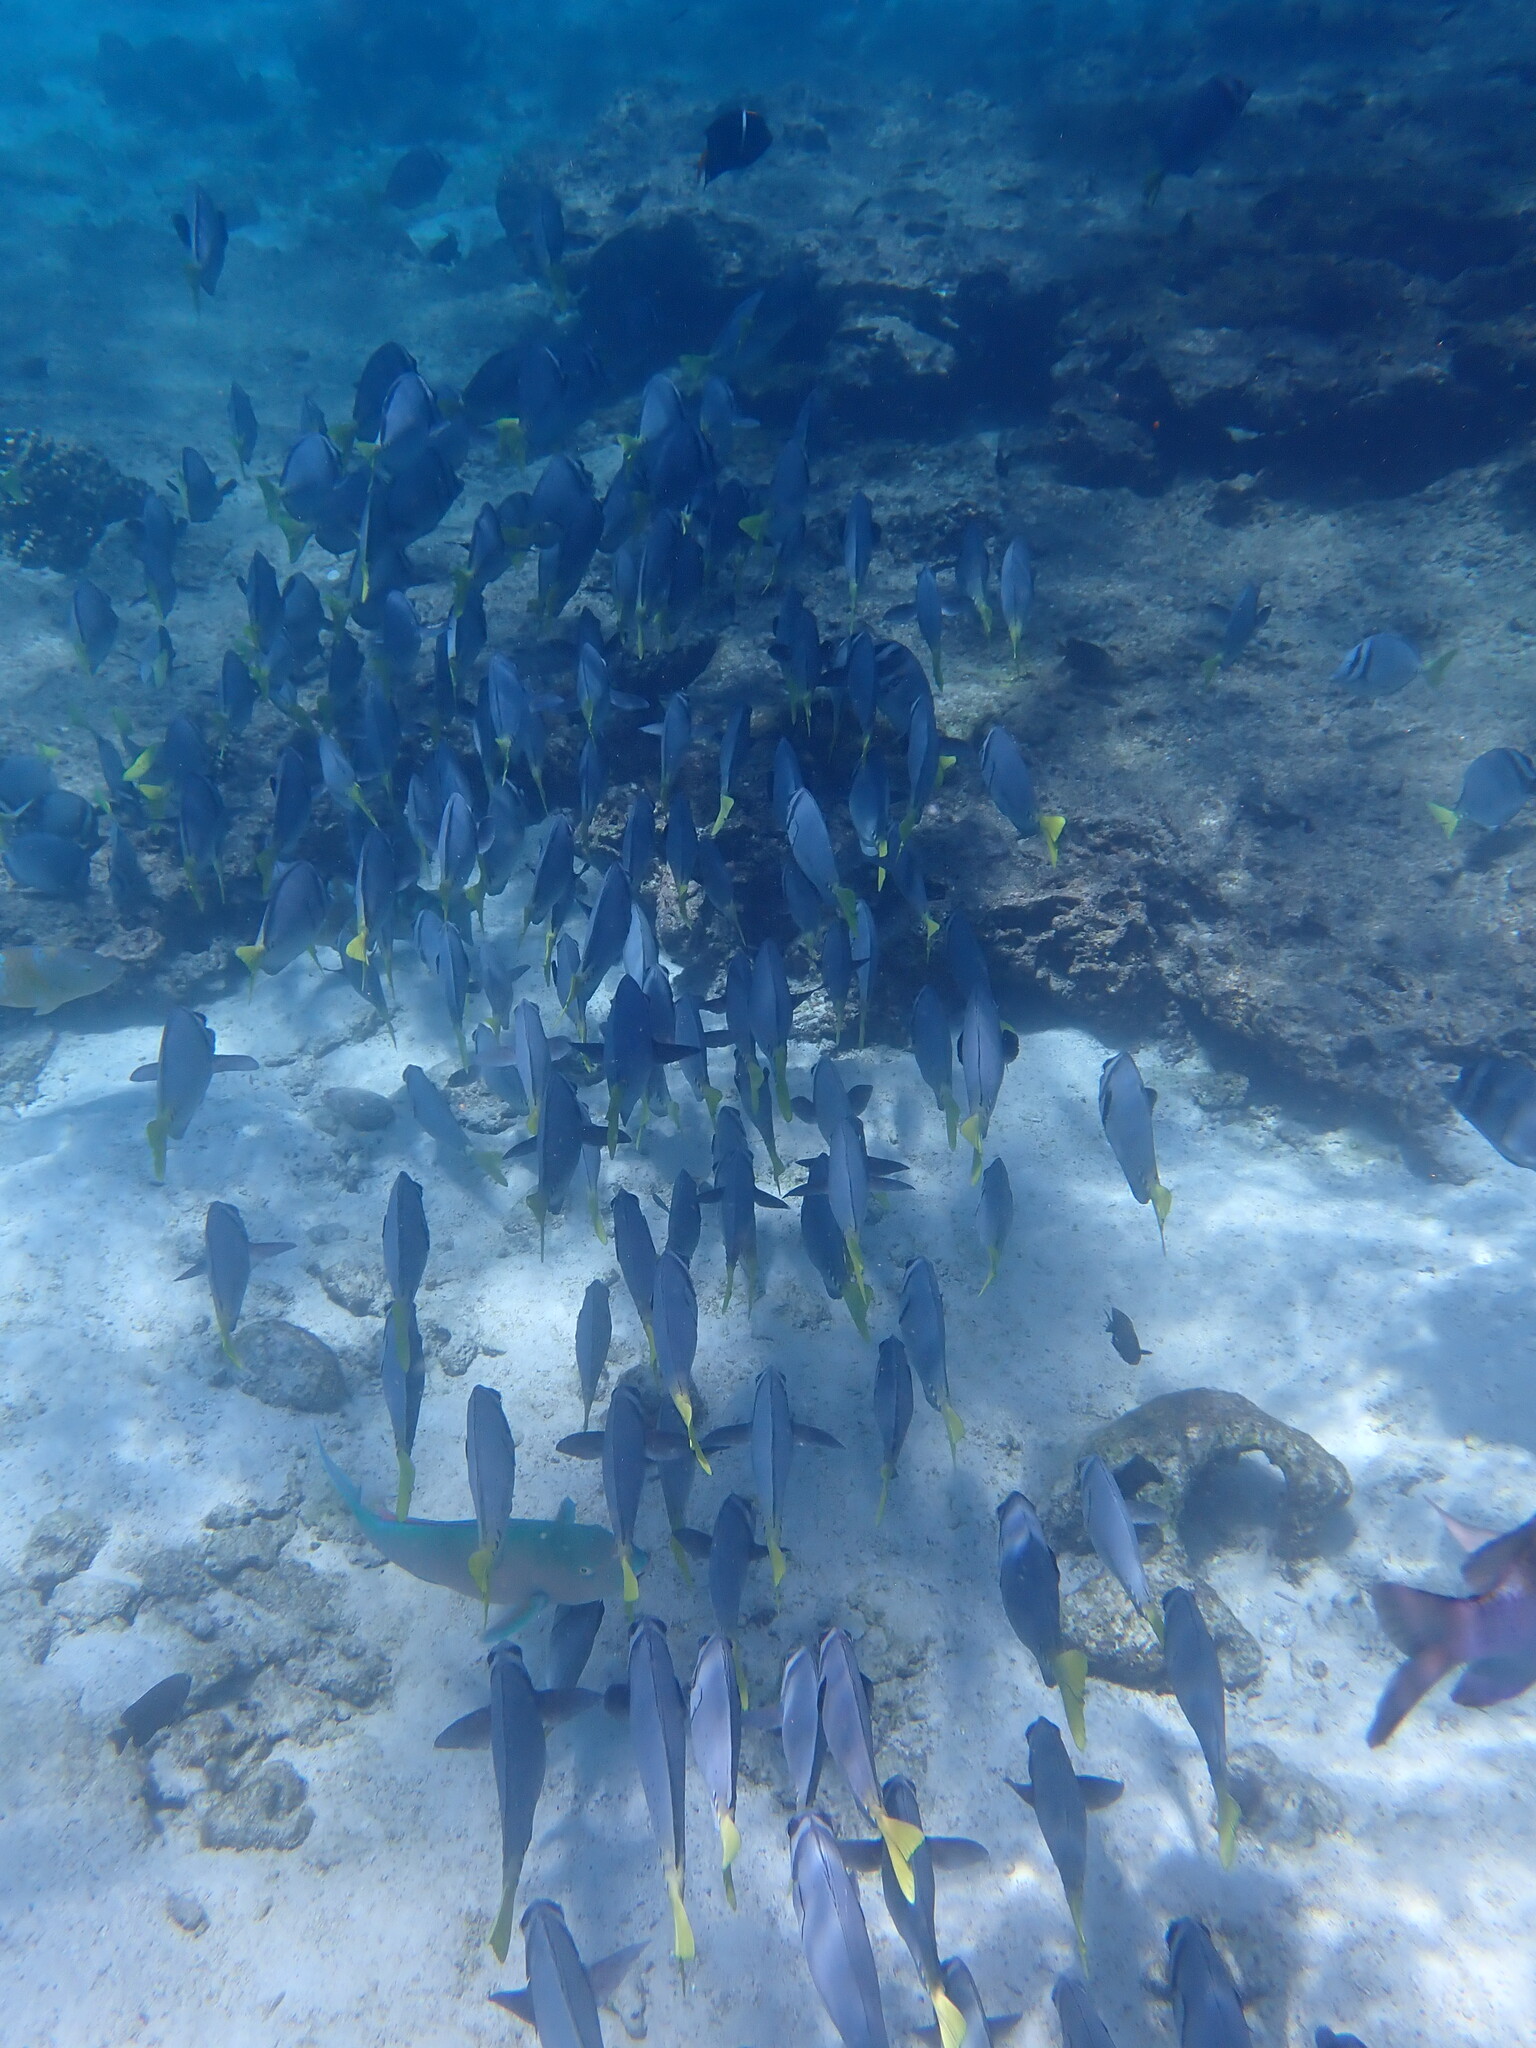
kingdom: Animalia
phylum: Chordata
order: Perciformes
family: Acanthuridae
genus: Prionurus
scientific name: Prionurus laticlavius
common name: Razor surgeonfish
